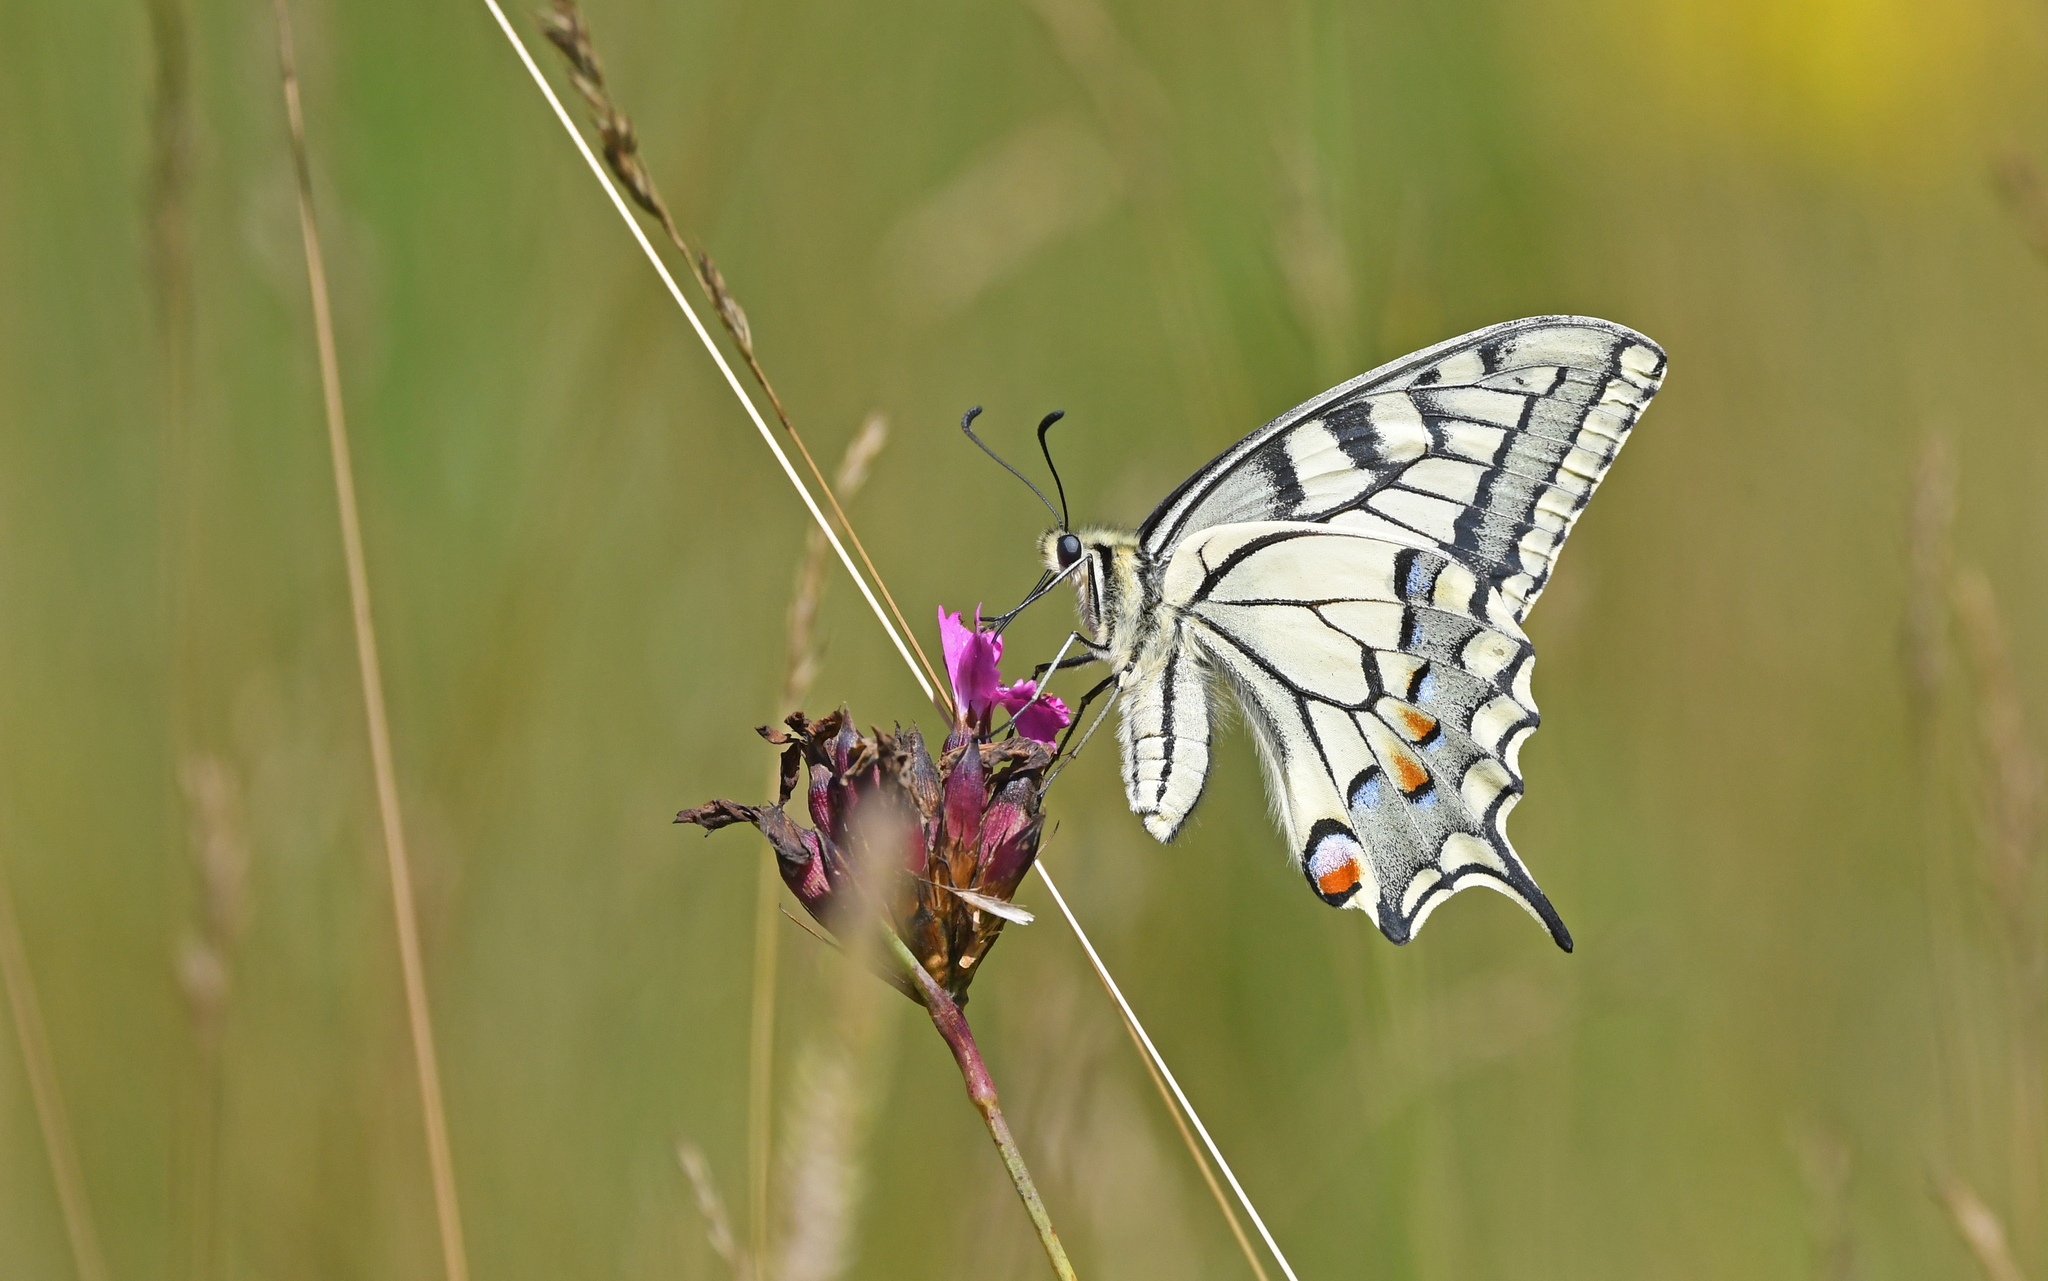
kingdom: Animalia
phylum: Arthropoda
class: Insecta
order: Lepidoptera
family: Papilionidae
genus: Papilio
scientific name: Papilio machaon
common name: Swallowtail
